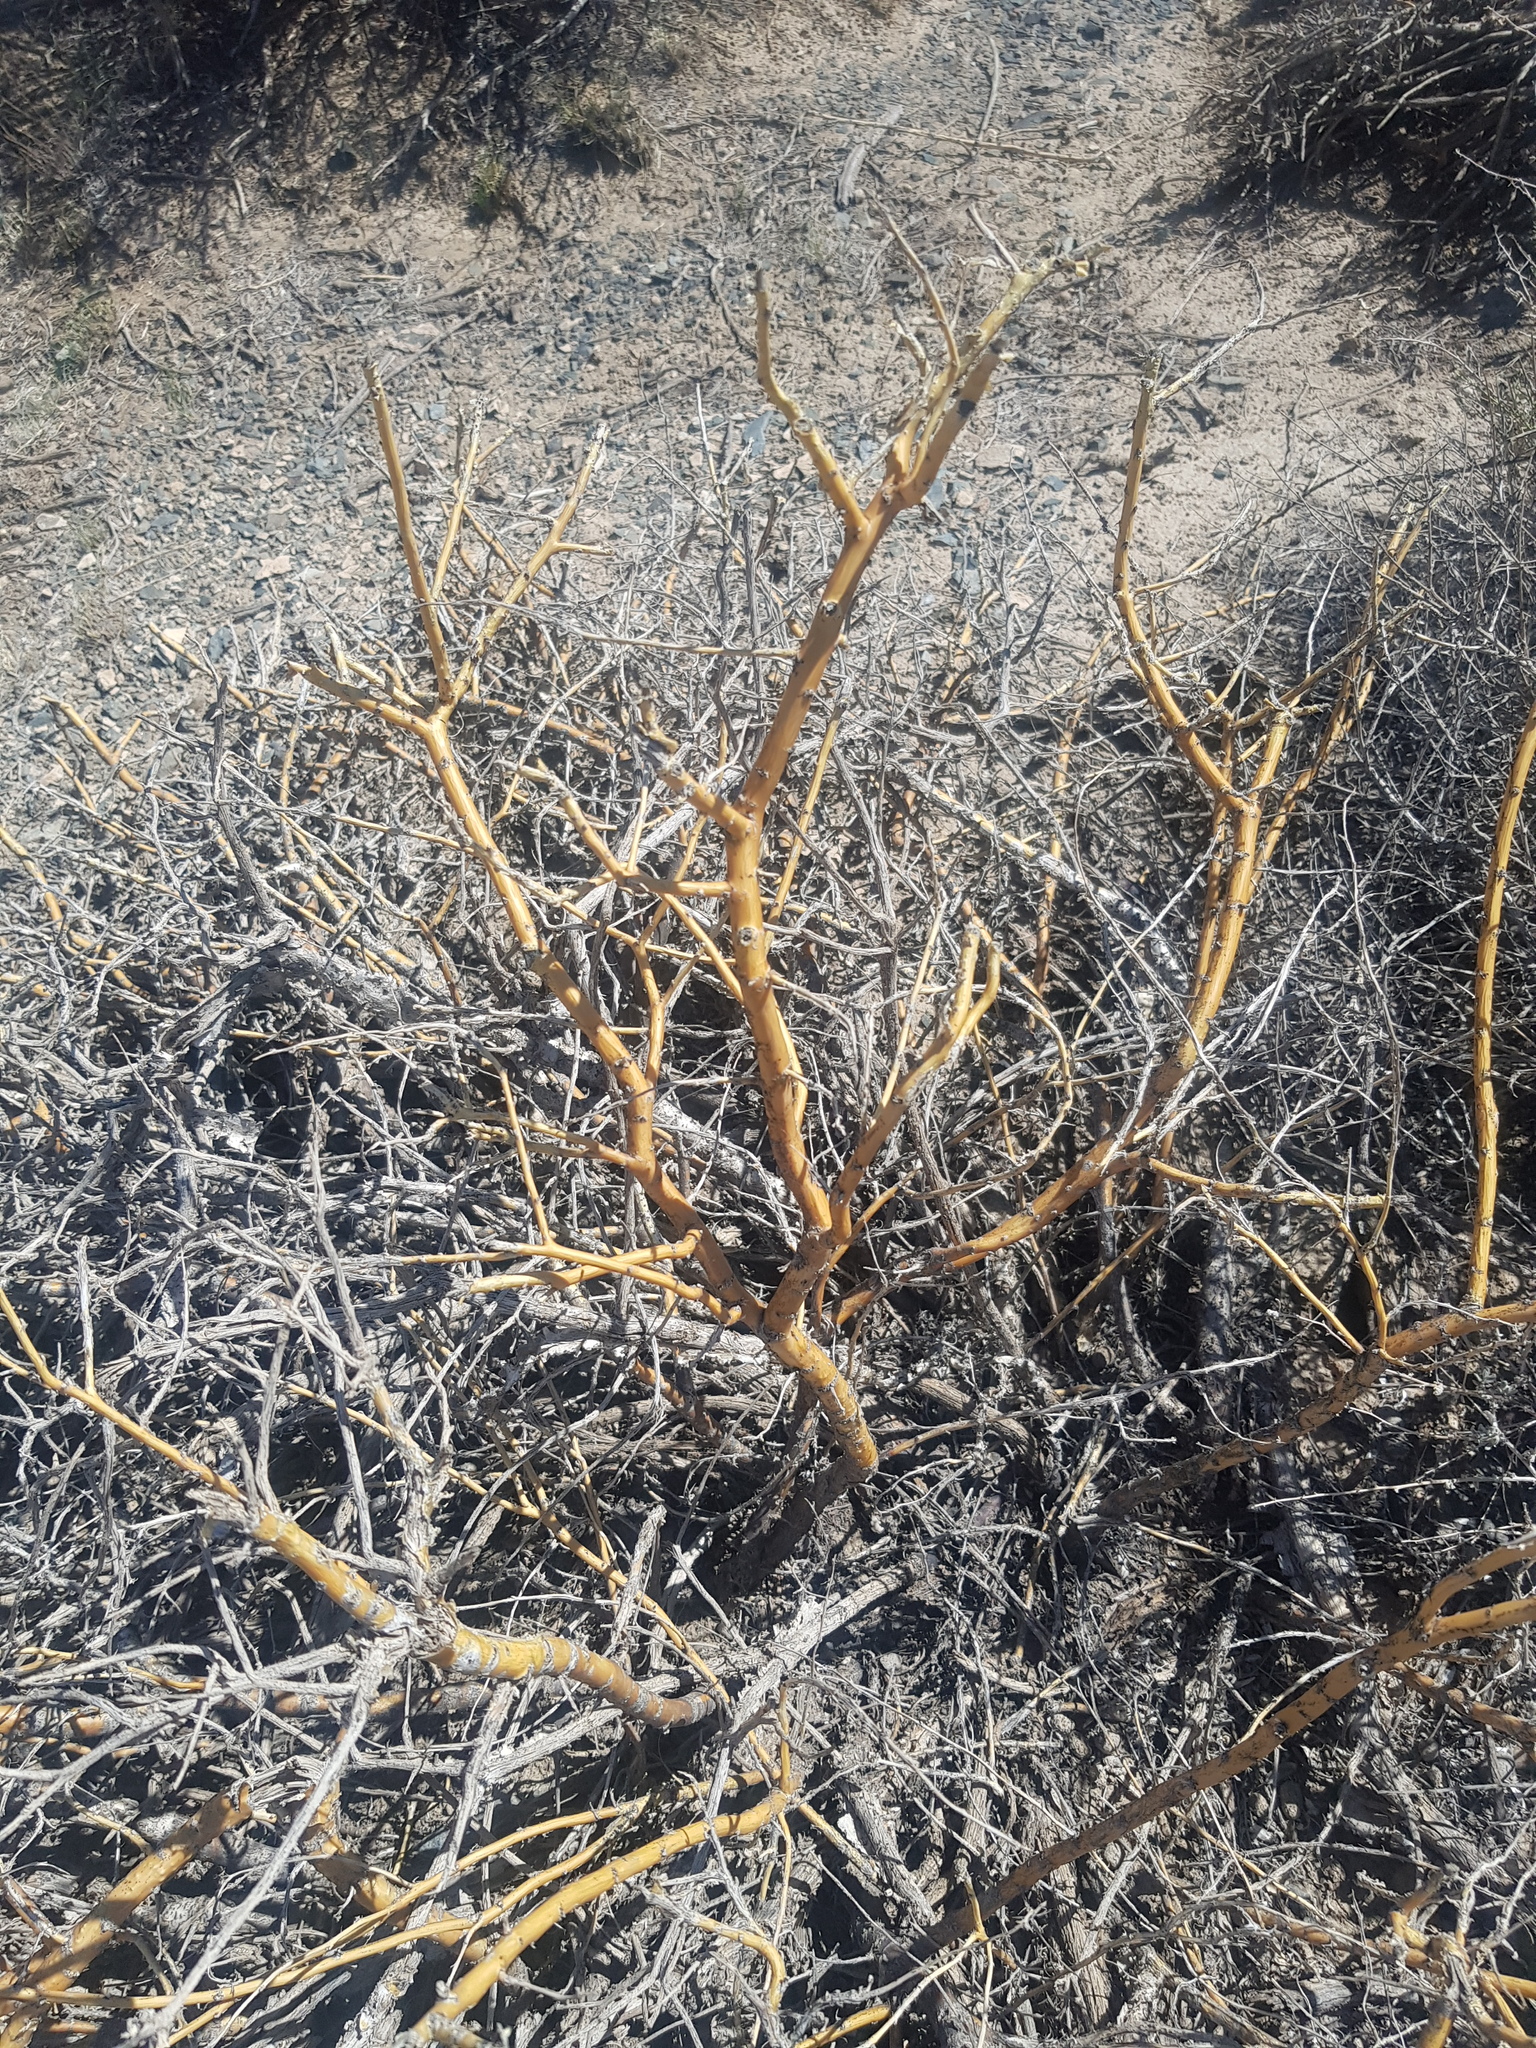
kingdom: Plantae
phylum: Tracheophyta
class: Magnoliopsida
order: Fabales
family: Fabaceae
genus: Caragana
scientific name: Caragana leucophloea
